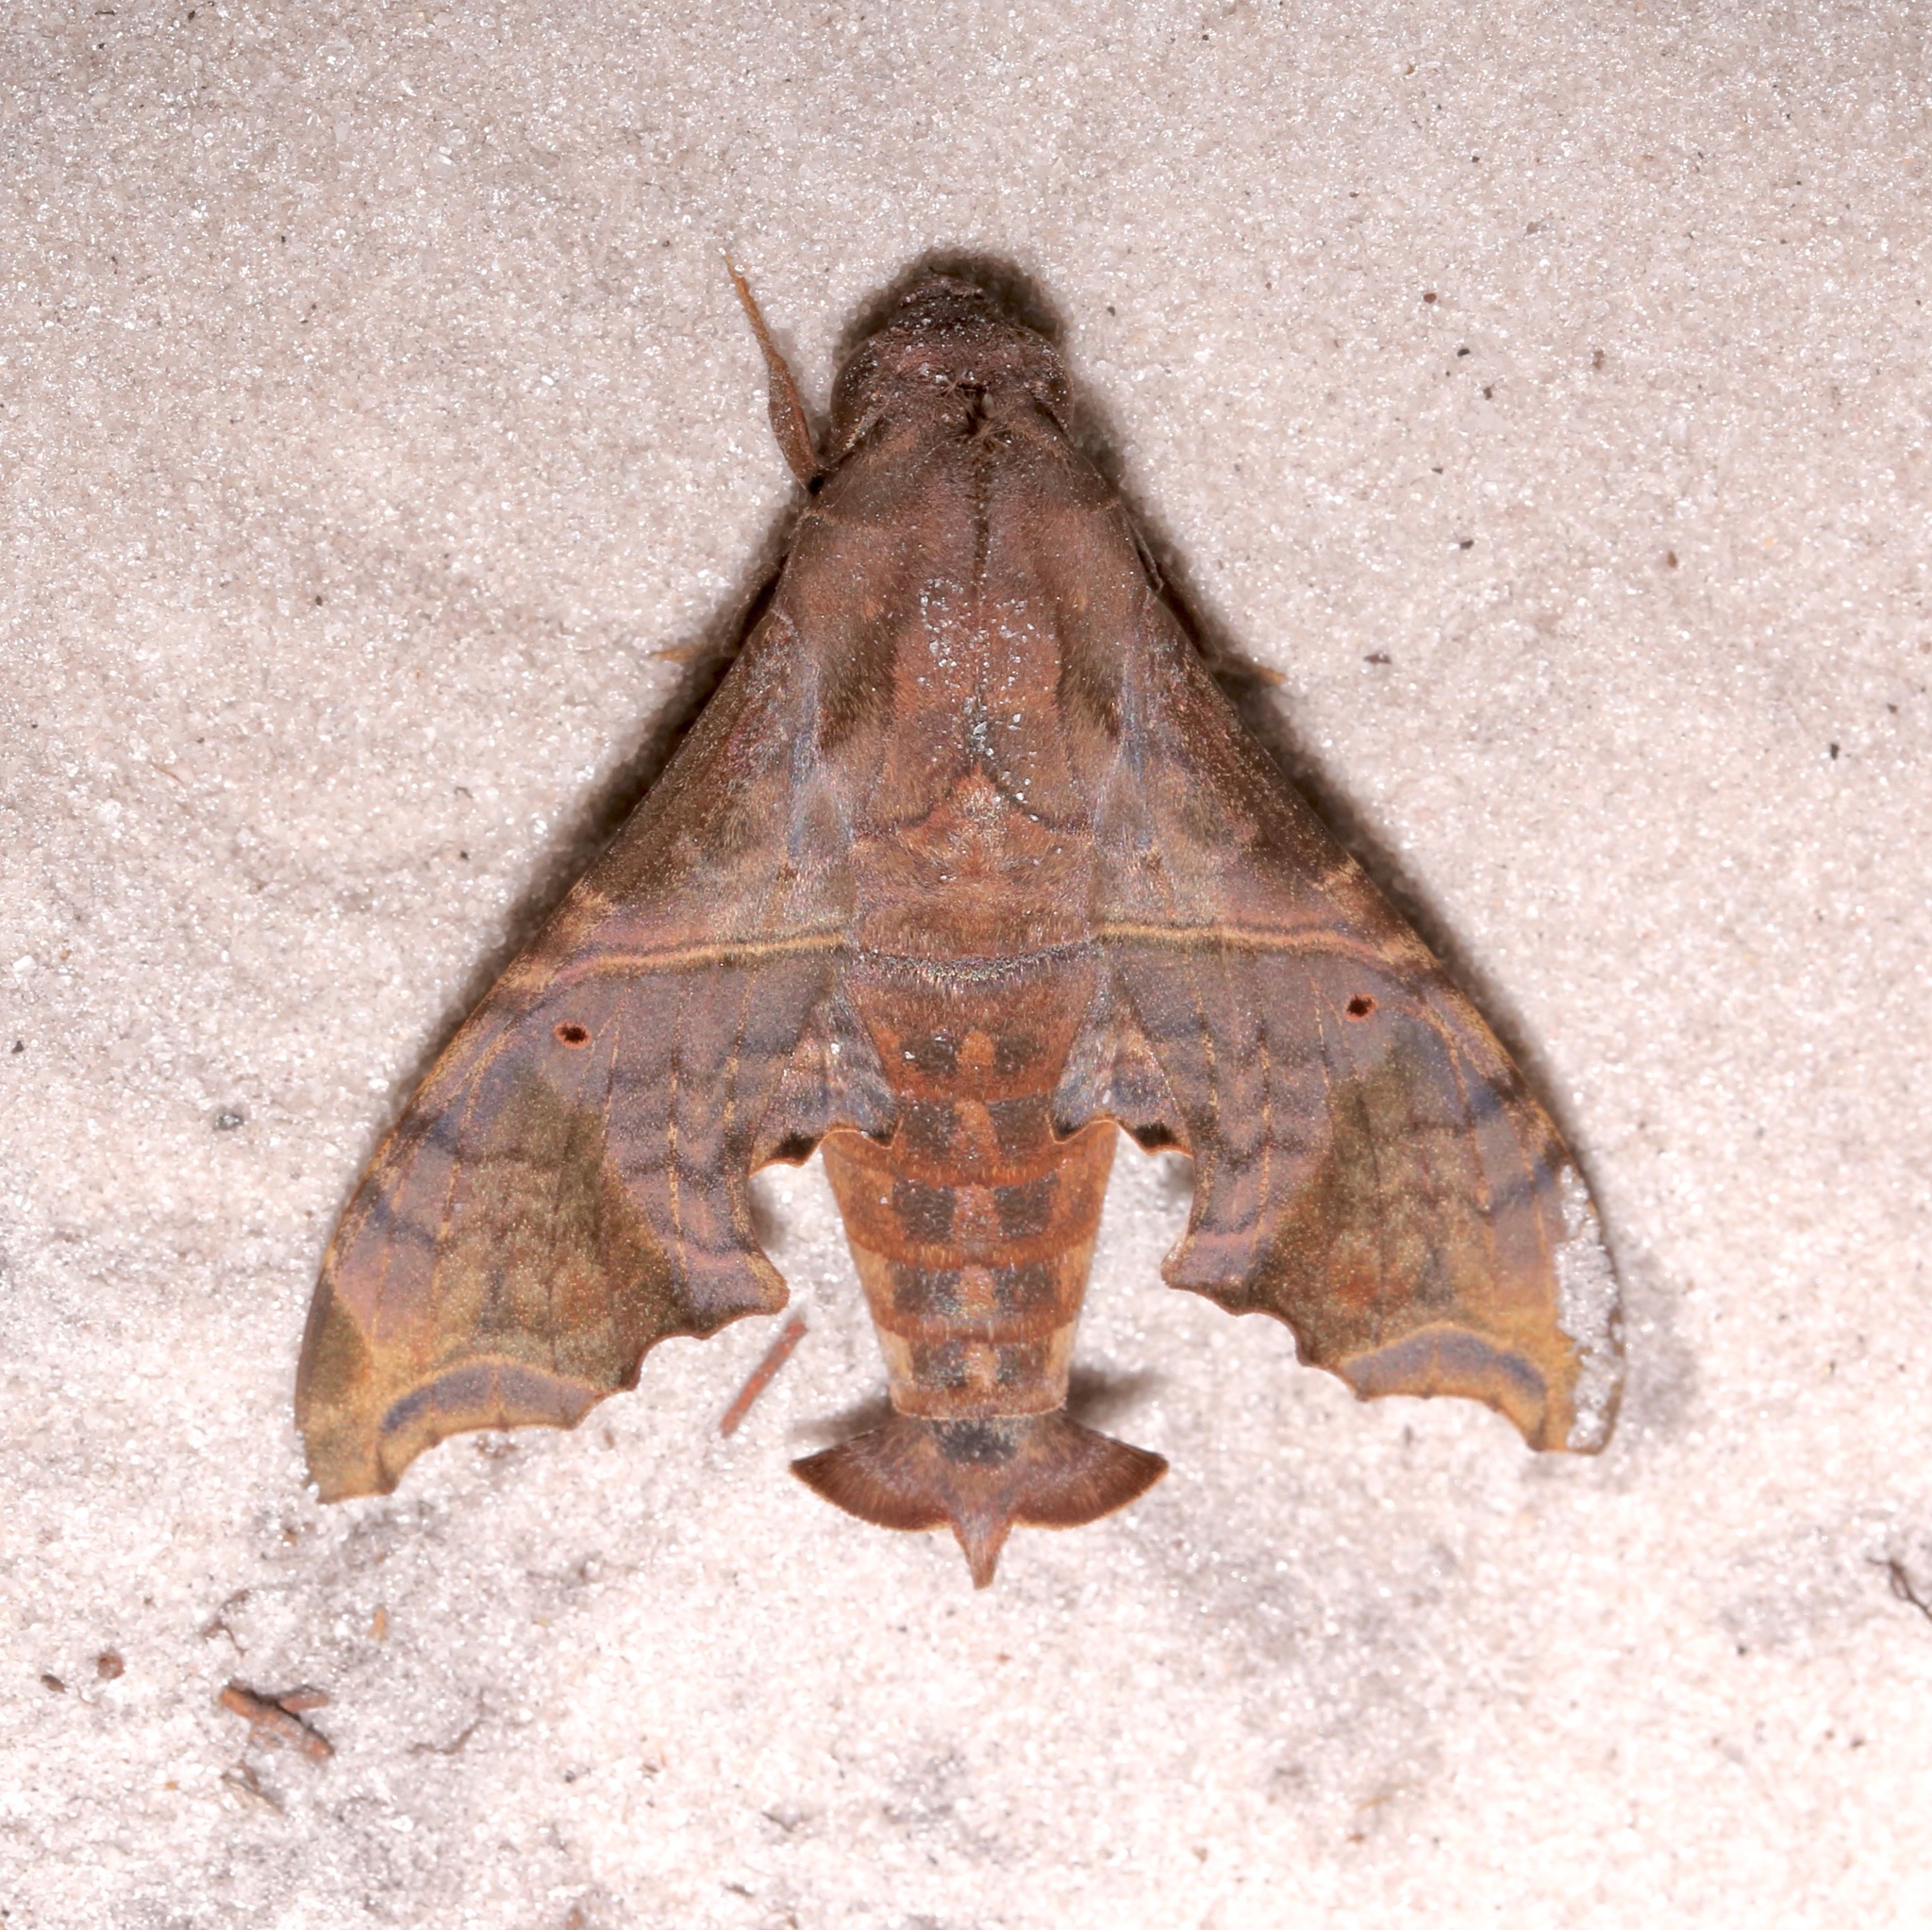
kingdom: Animalia
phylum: Arthropoda
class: Insecta
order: Lepidoptera
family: Sphingidae
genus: Enyo
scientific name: Enyo lugubris
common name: Mournful sphinx
